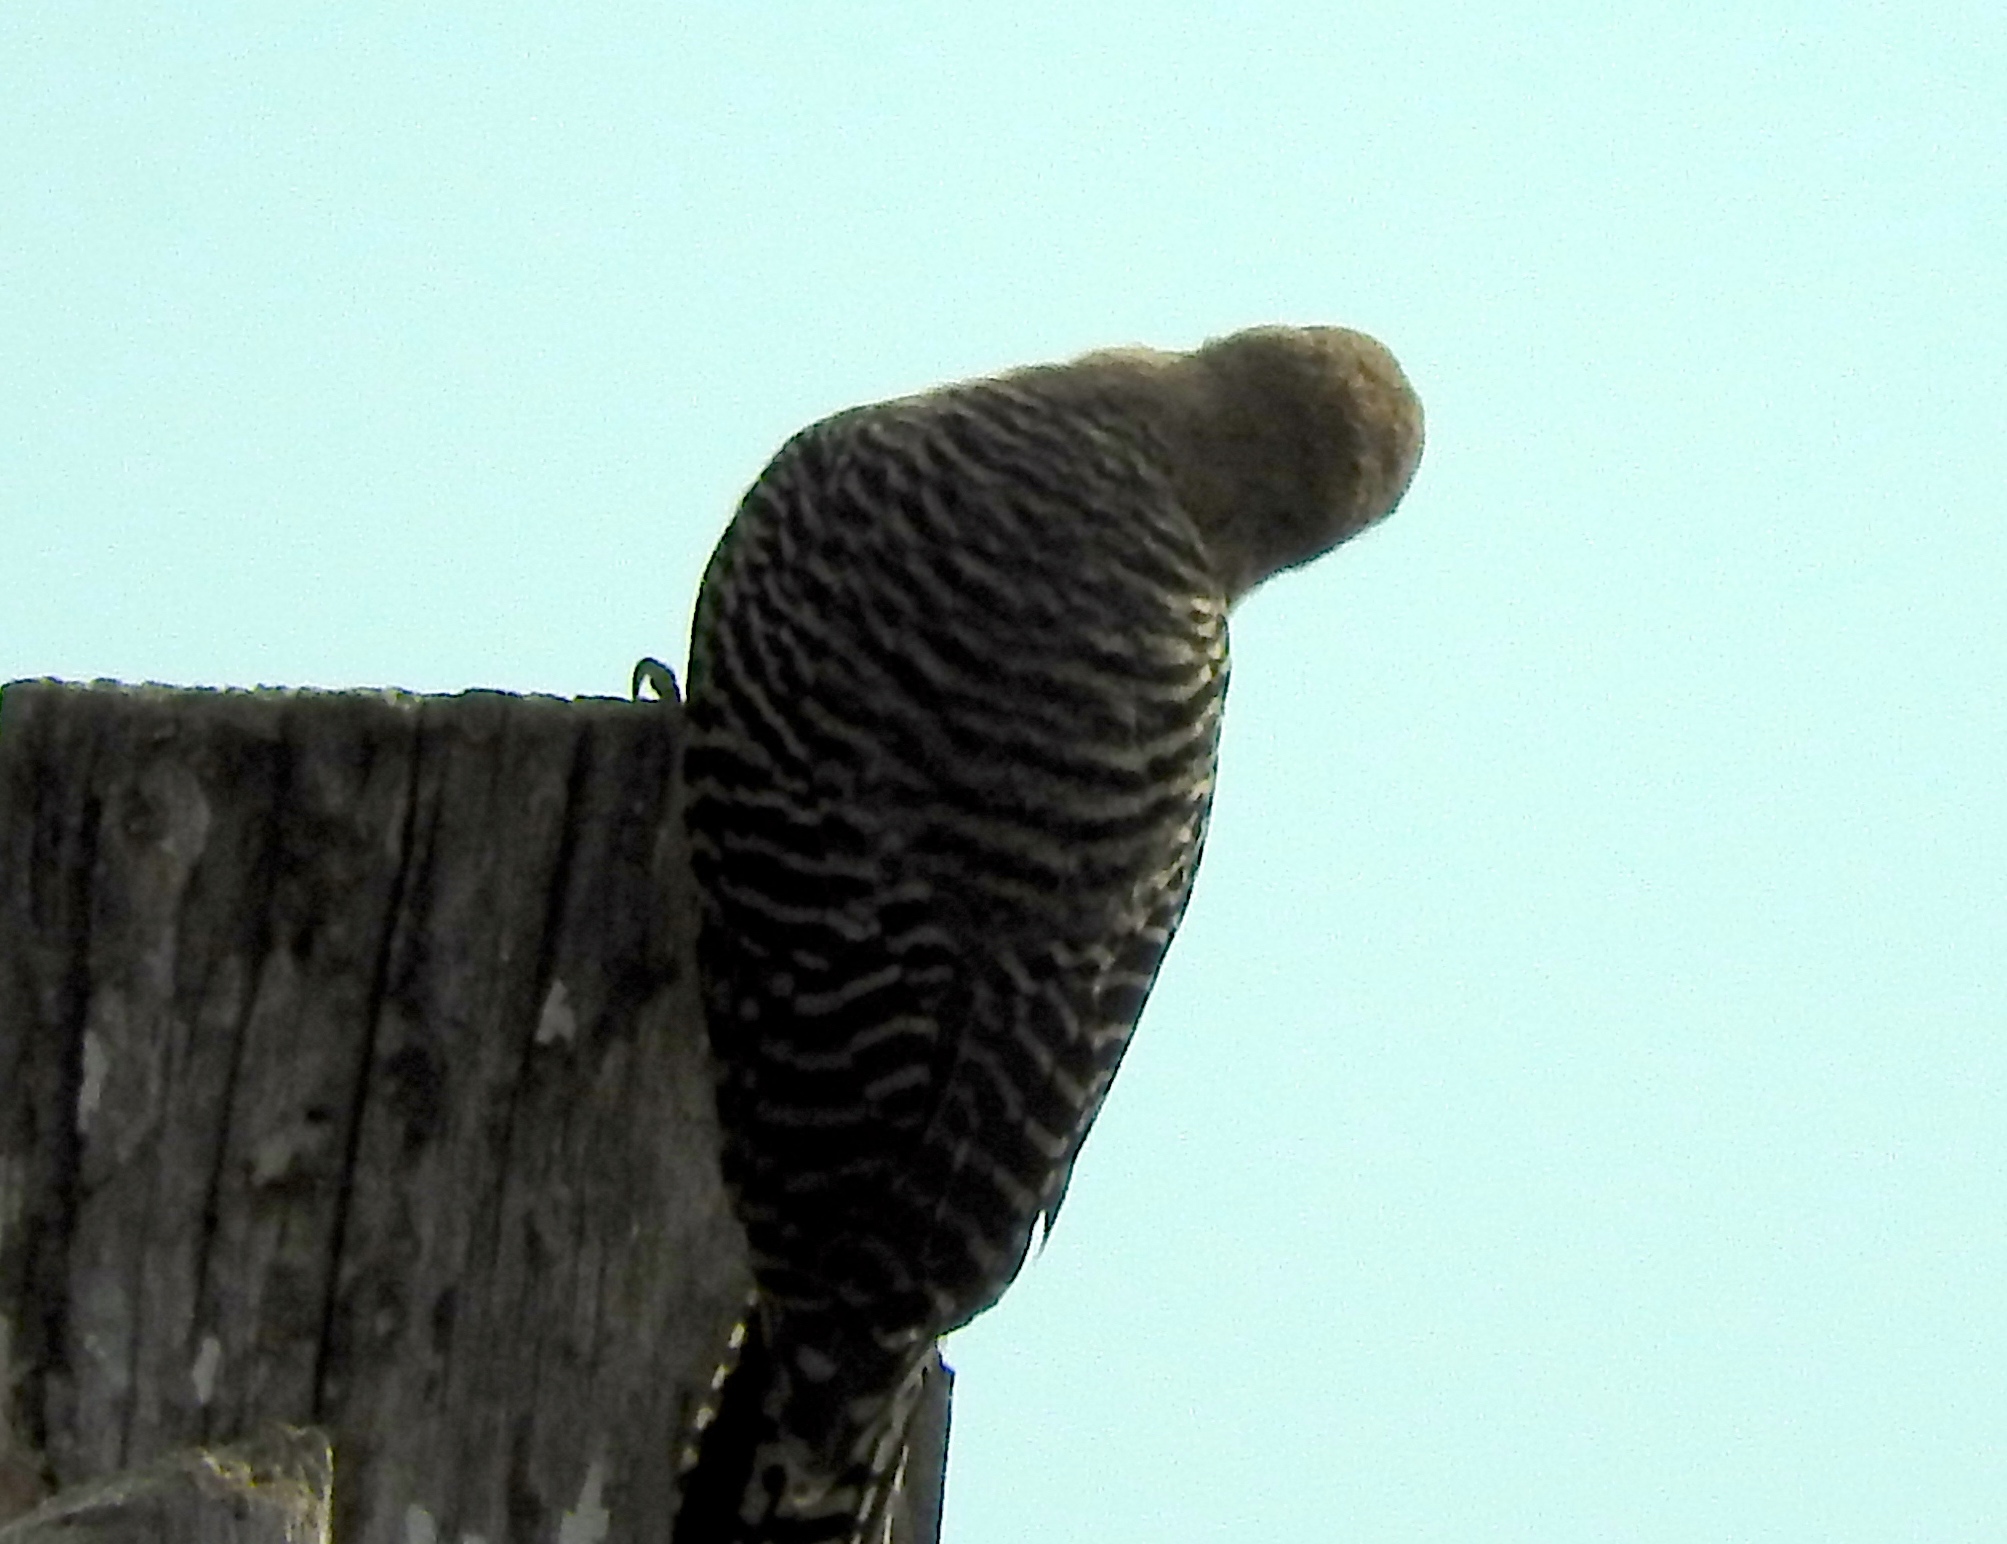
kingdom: Animalia
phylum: Chordata
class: Aves
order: Piciformes
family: Picidae
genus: Melanerpes
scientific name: Melanerpes uropygialis
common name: Gila woodpecker
